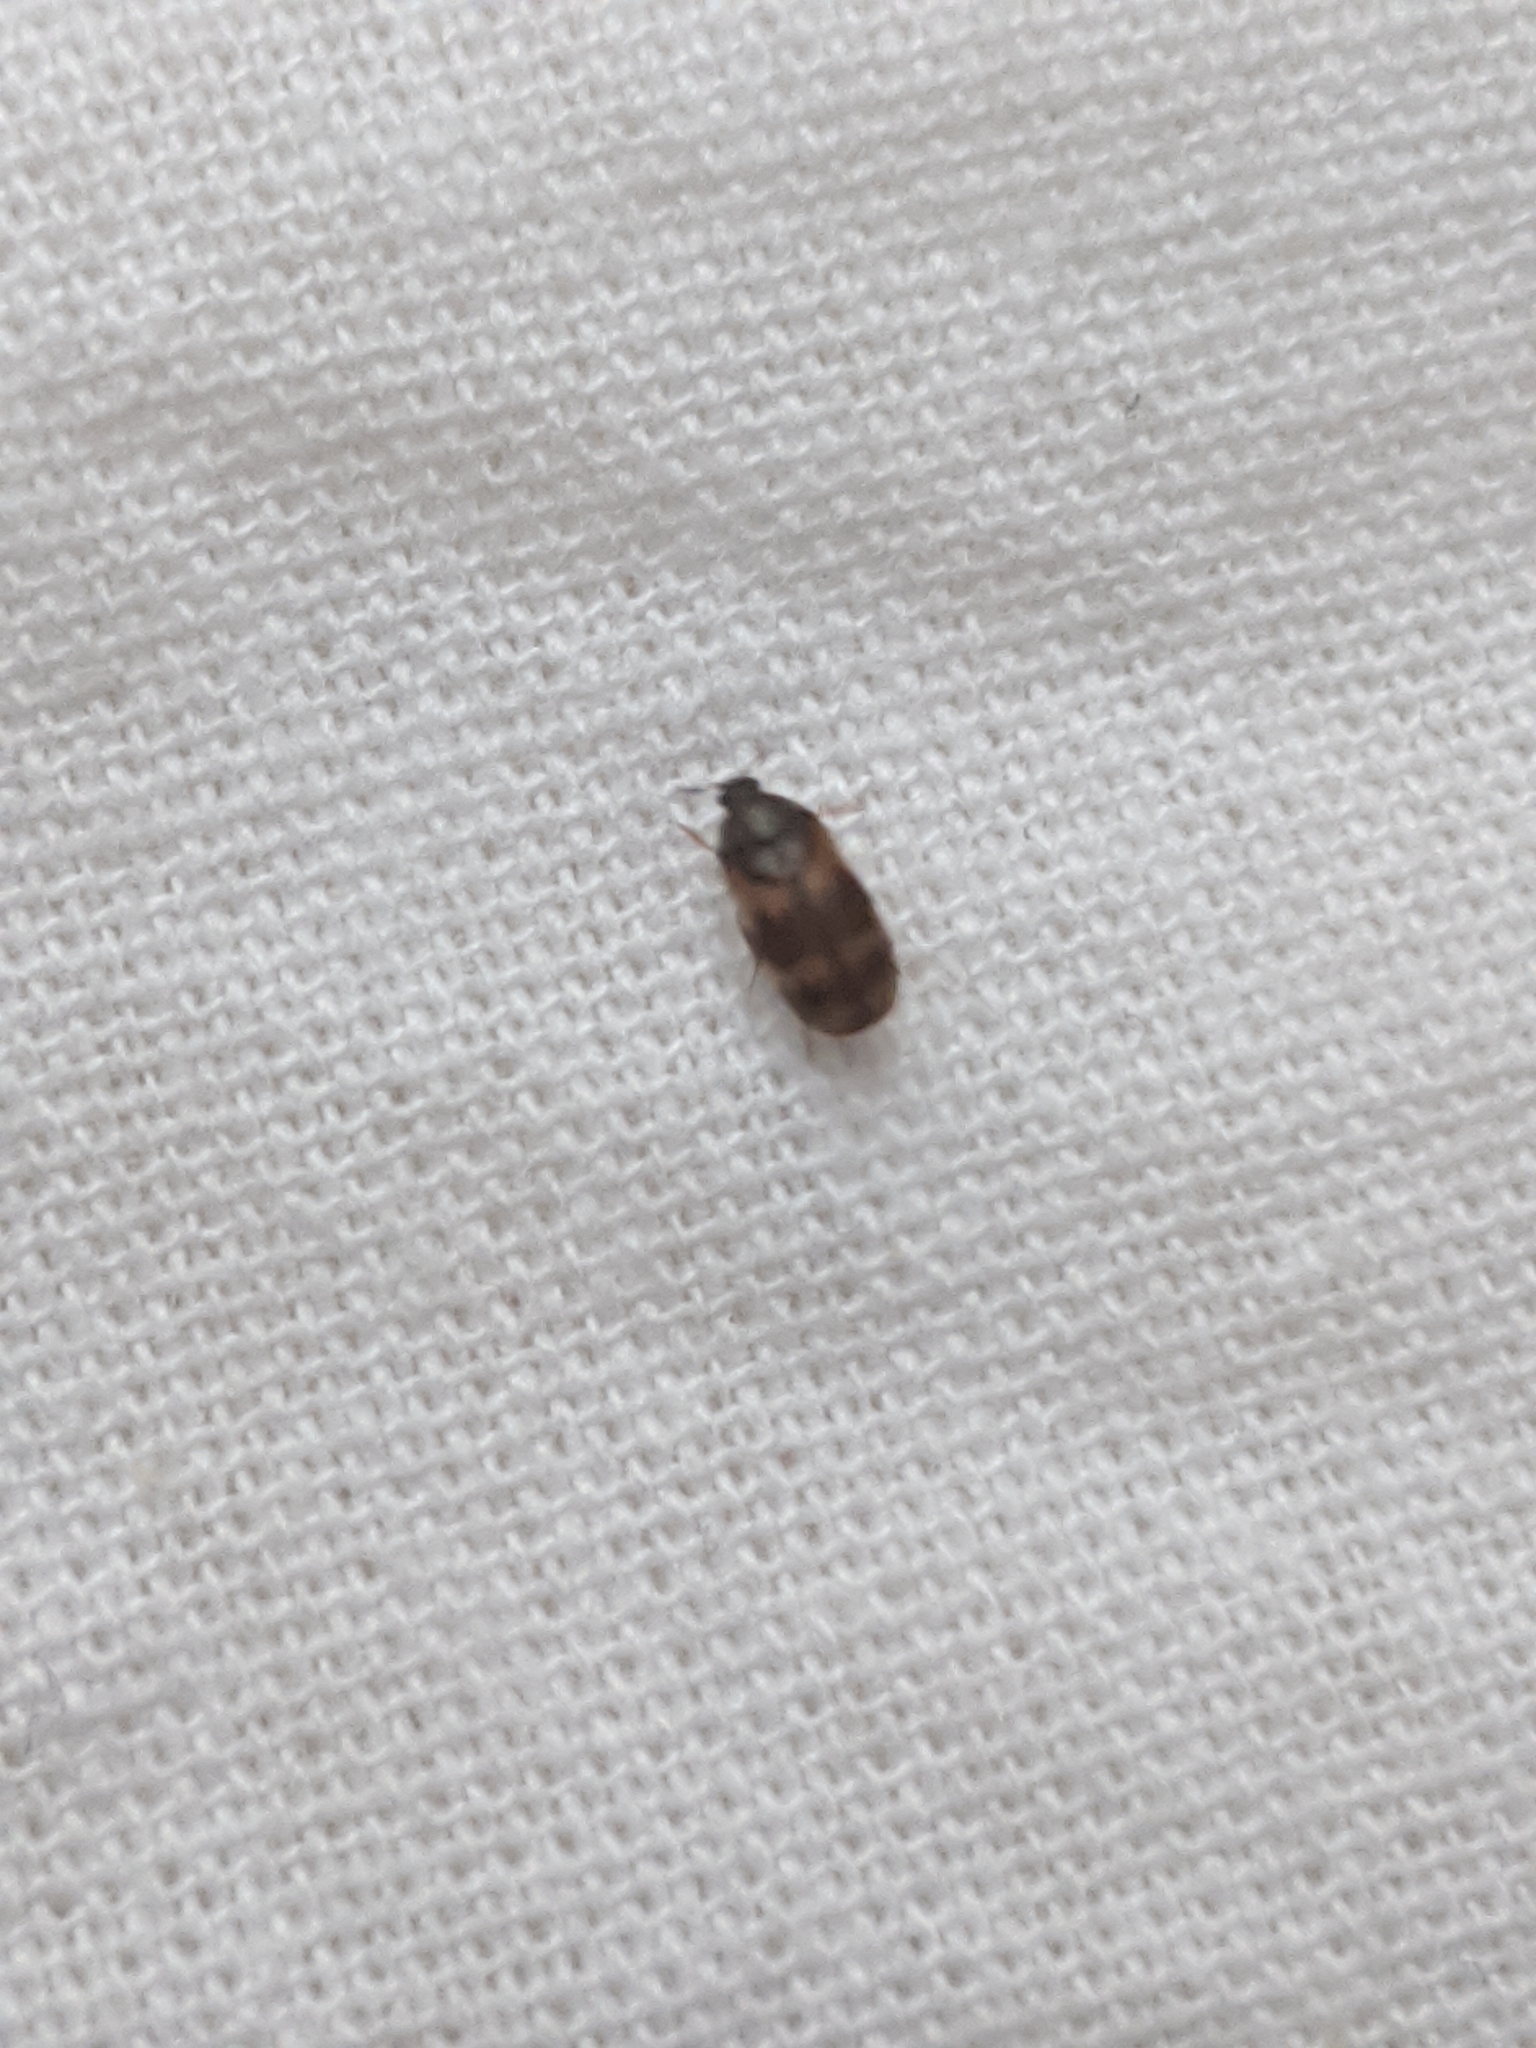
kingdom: Animalia
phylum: Arthropoda
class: Insecta
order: Coleoptera
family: Dermestidae
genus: Trogoderma
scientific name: Trogoderma angustum
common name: Skin beetle
